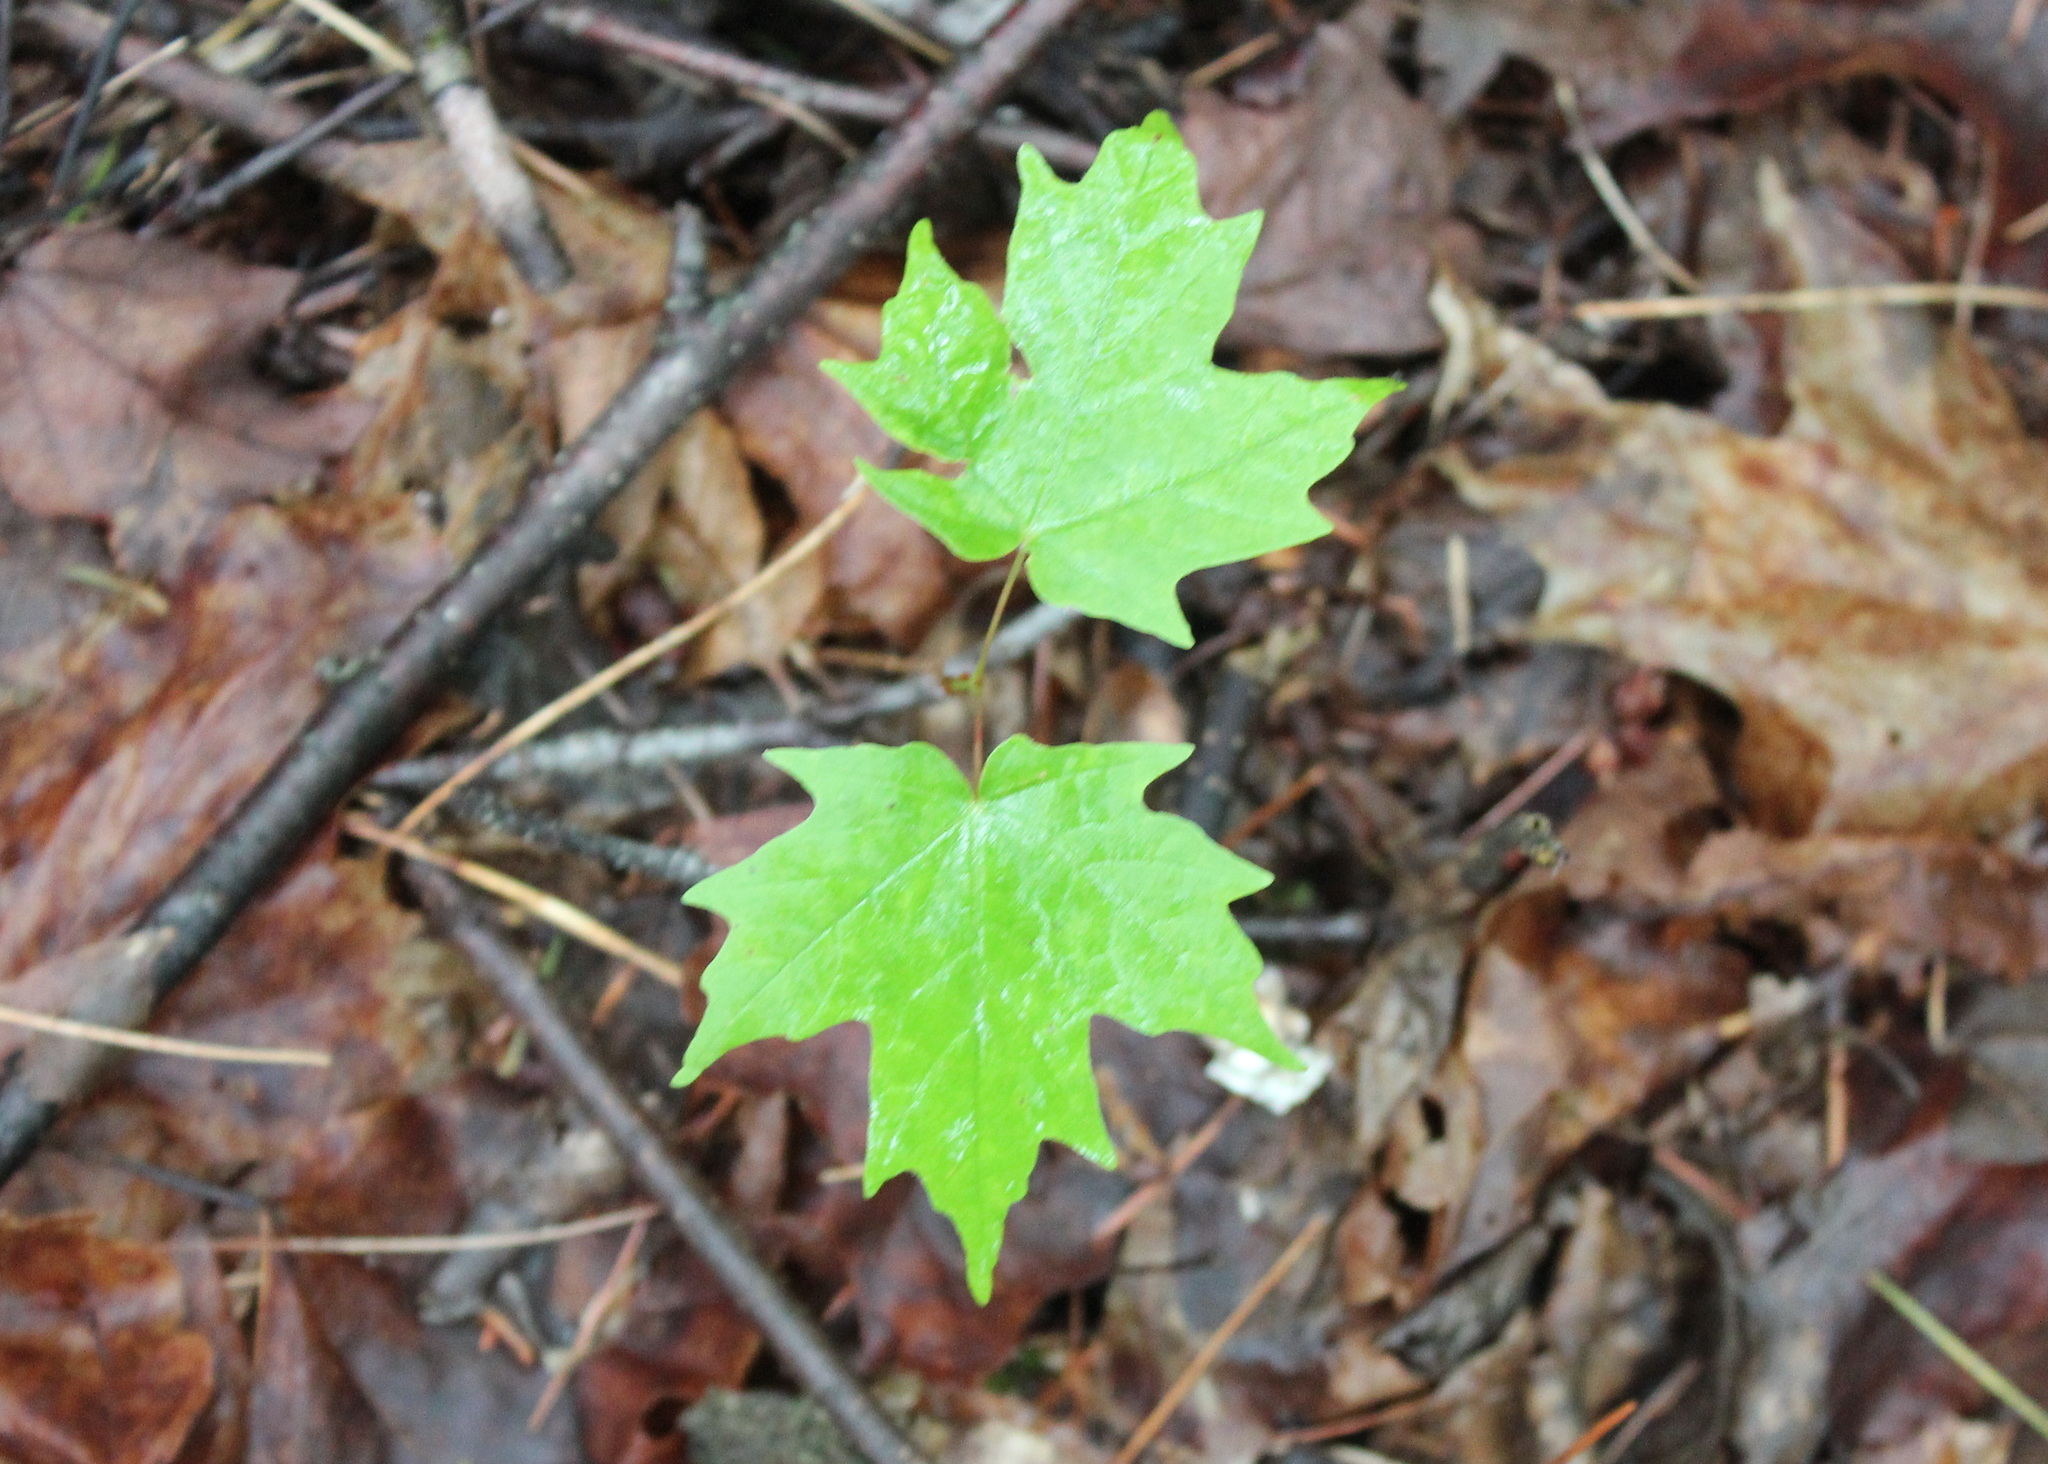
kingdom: Plantae
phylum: Tracheophyta
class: Magnoliopsida
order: Sapindales
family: Sapindaceae
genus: Acer
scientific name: Acer saccharum
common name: Sugar maple
